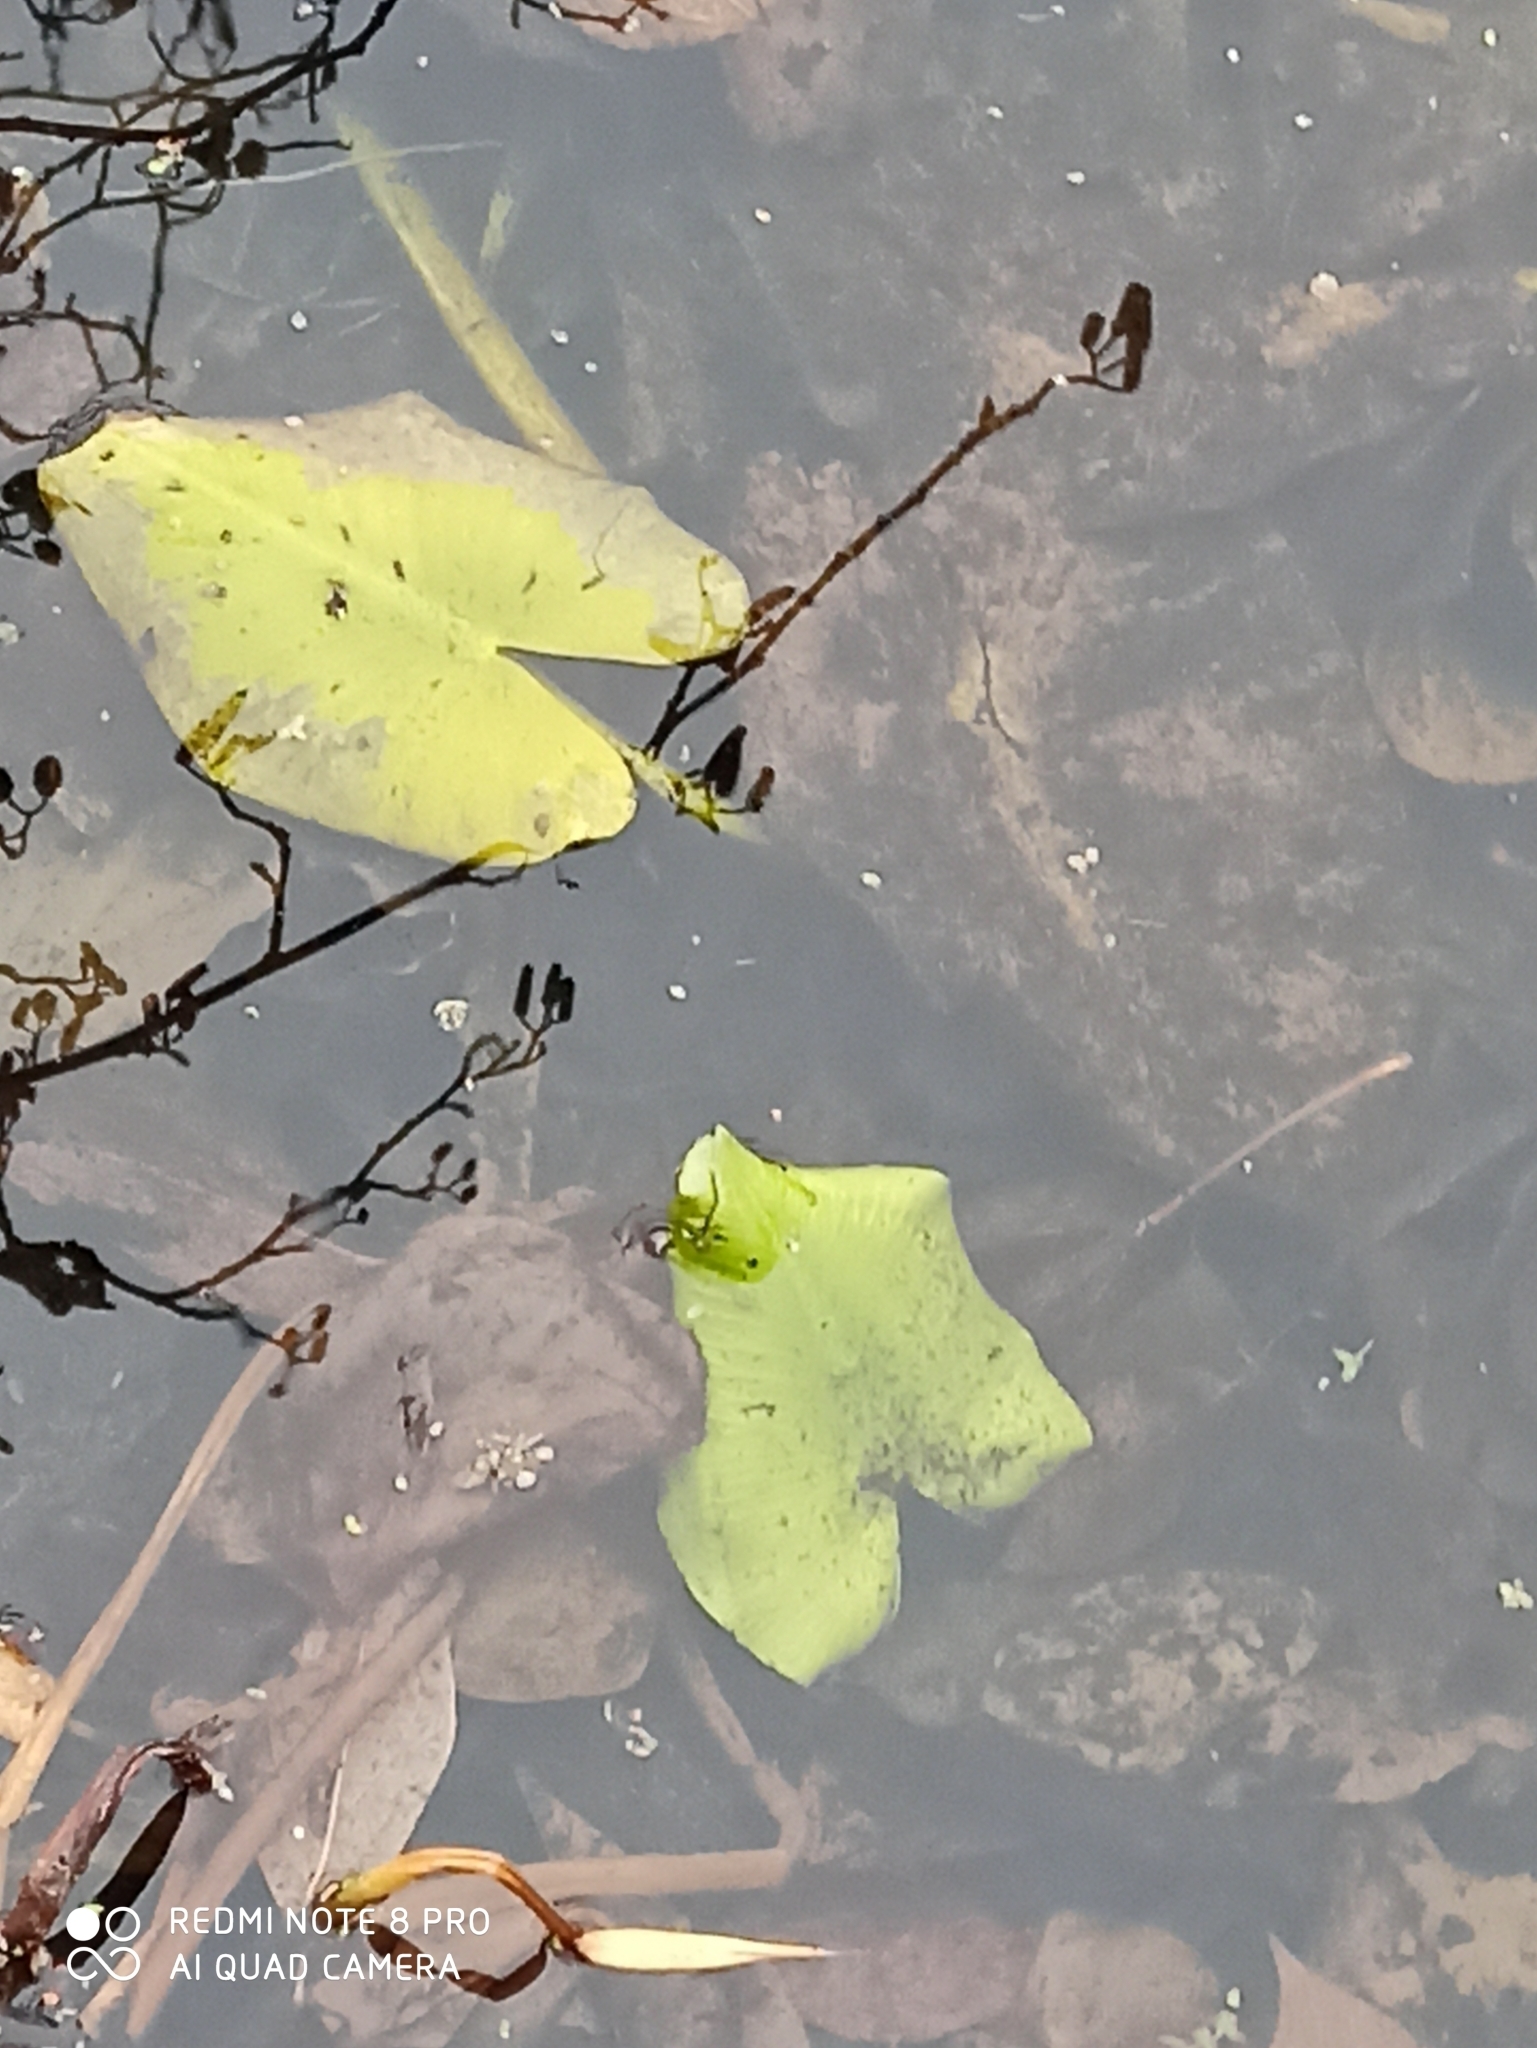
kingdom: Plantae
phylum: Tracheophyta
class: Magnoliopsida
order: Nymphaeales
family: Nymphaeaceae
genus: Nuphar
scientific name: Nuphar lutea
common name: Yellow water-lily
